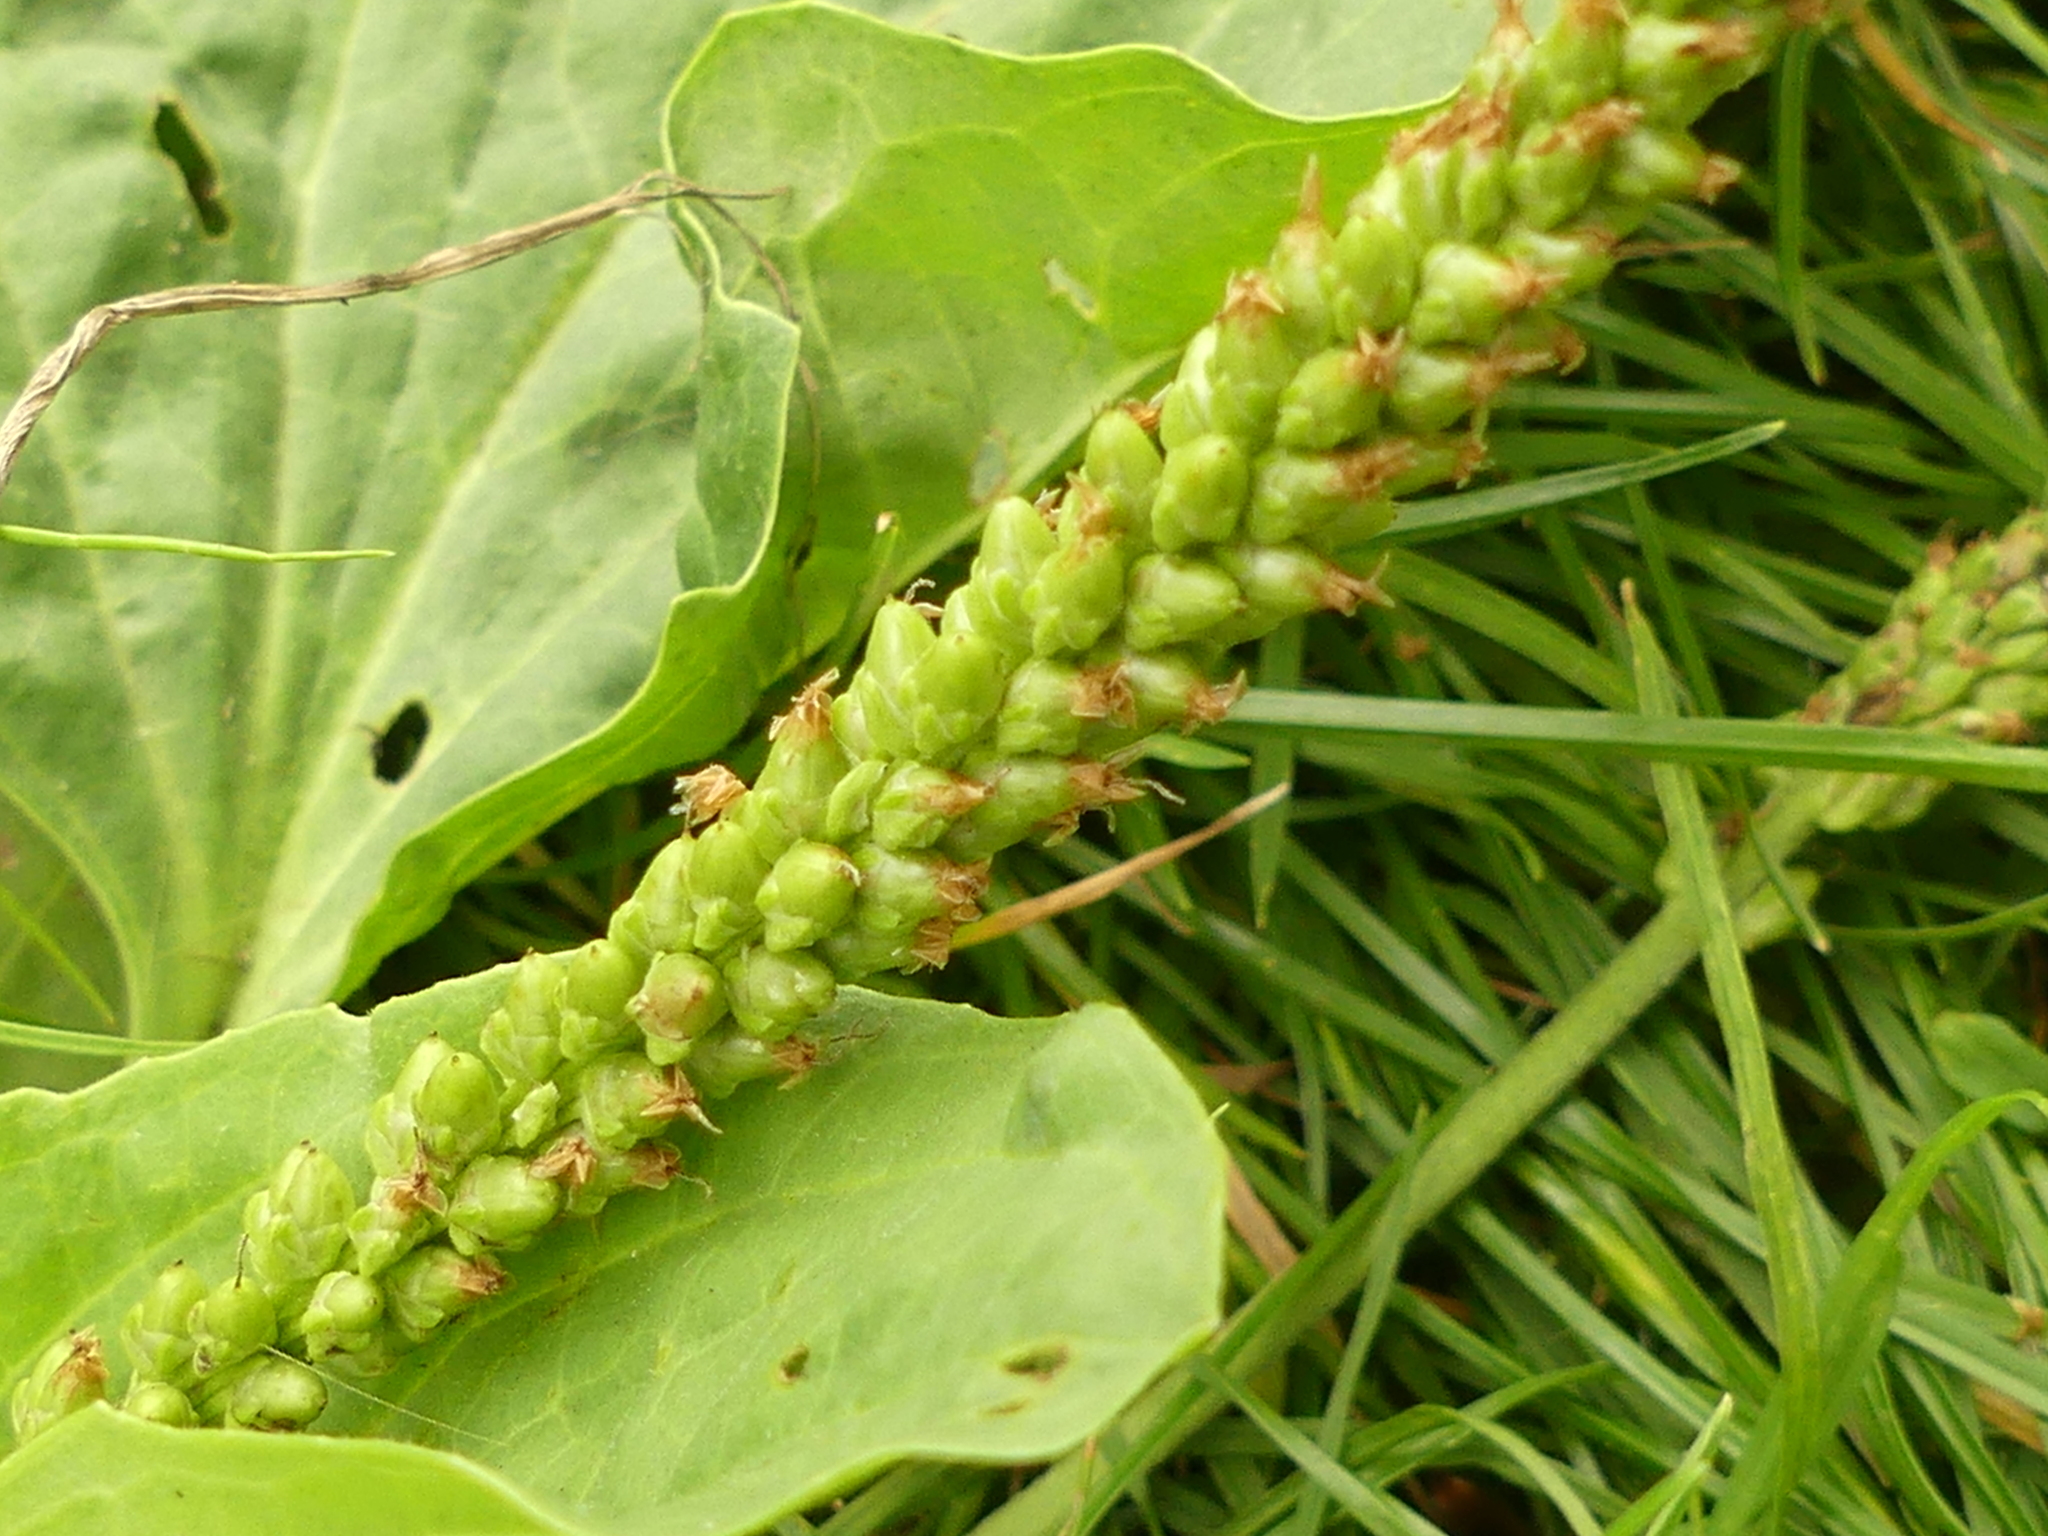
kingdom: Plantae
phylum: Tracheophyta
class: Magnoliopsida
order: Lamiales
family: Plantaginaceae
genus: Plantago
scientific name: Plantago major
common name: Common plantain
